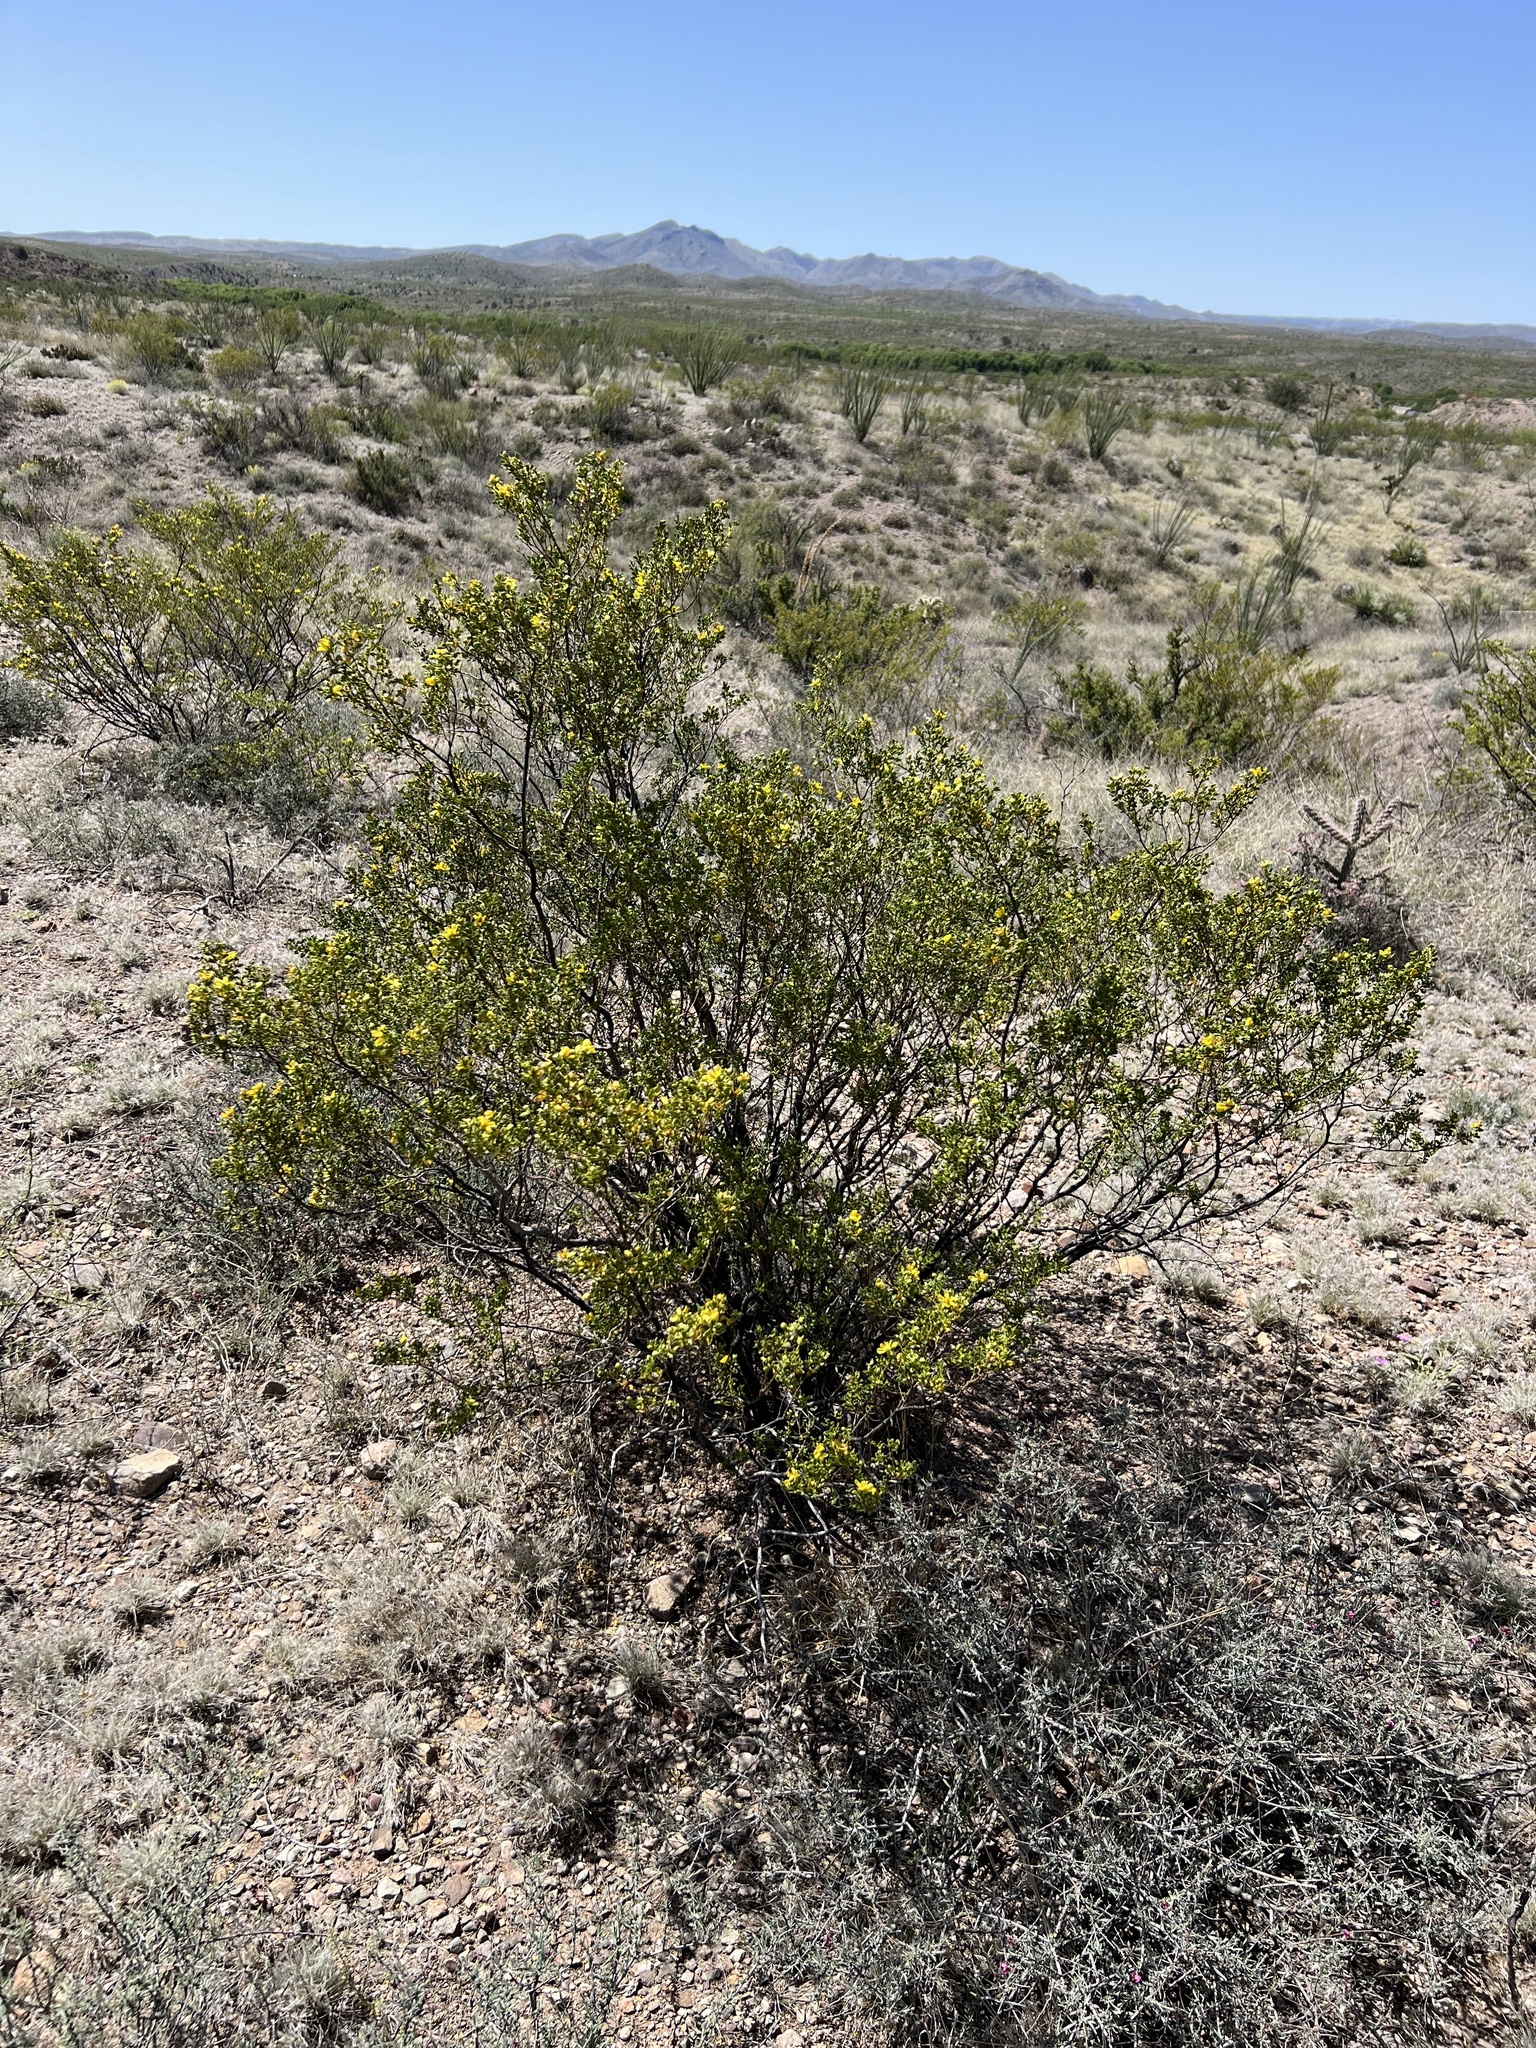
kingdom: Plantae
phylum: Tracheophyta
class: Magnoliopsida
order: Zygophyllales
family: Zygophyllaceae
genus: Larrea
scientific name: Larrea tridentata
